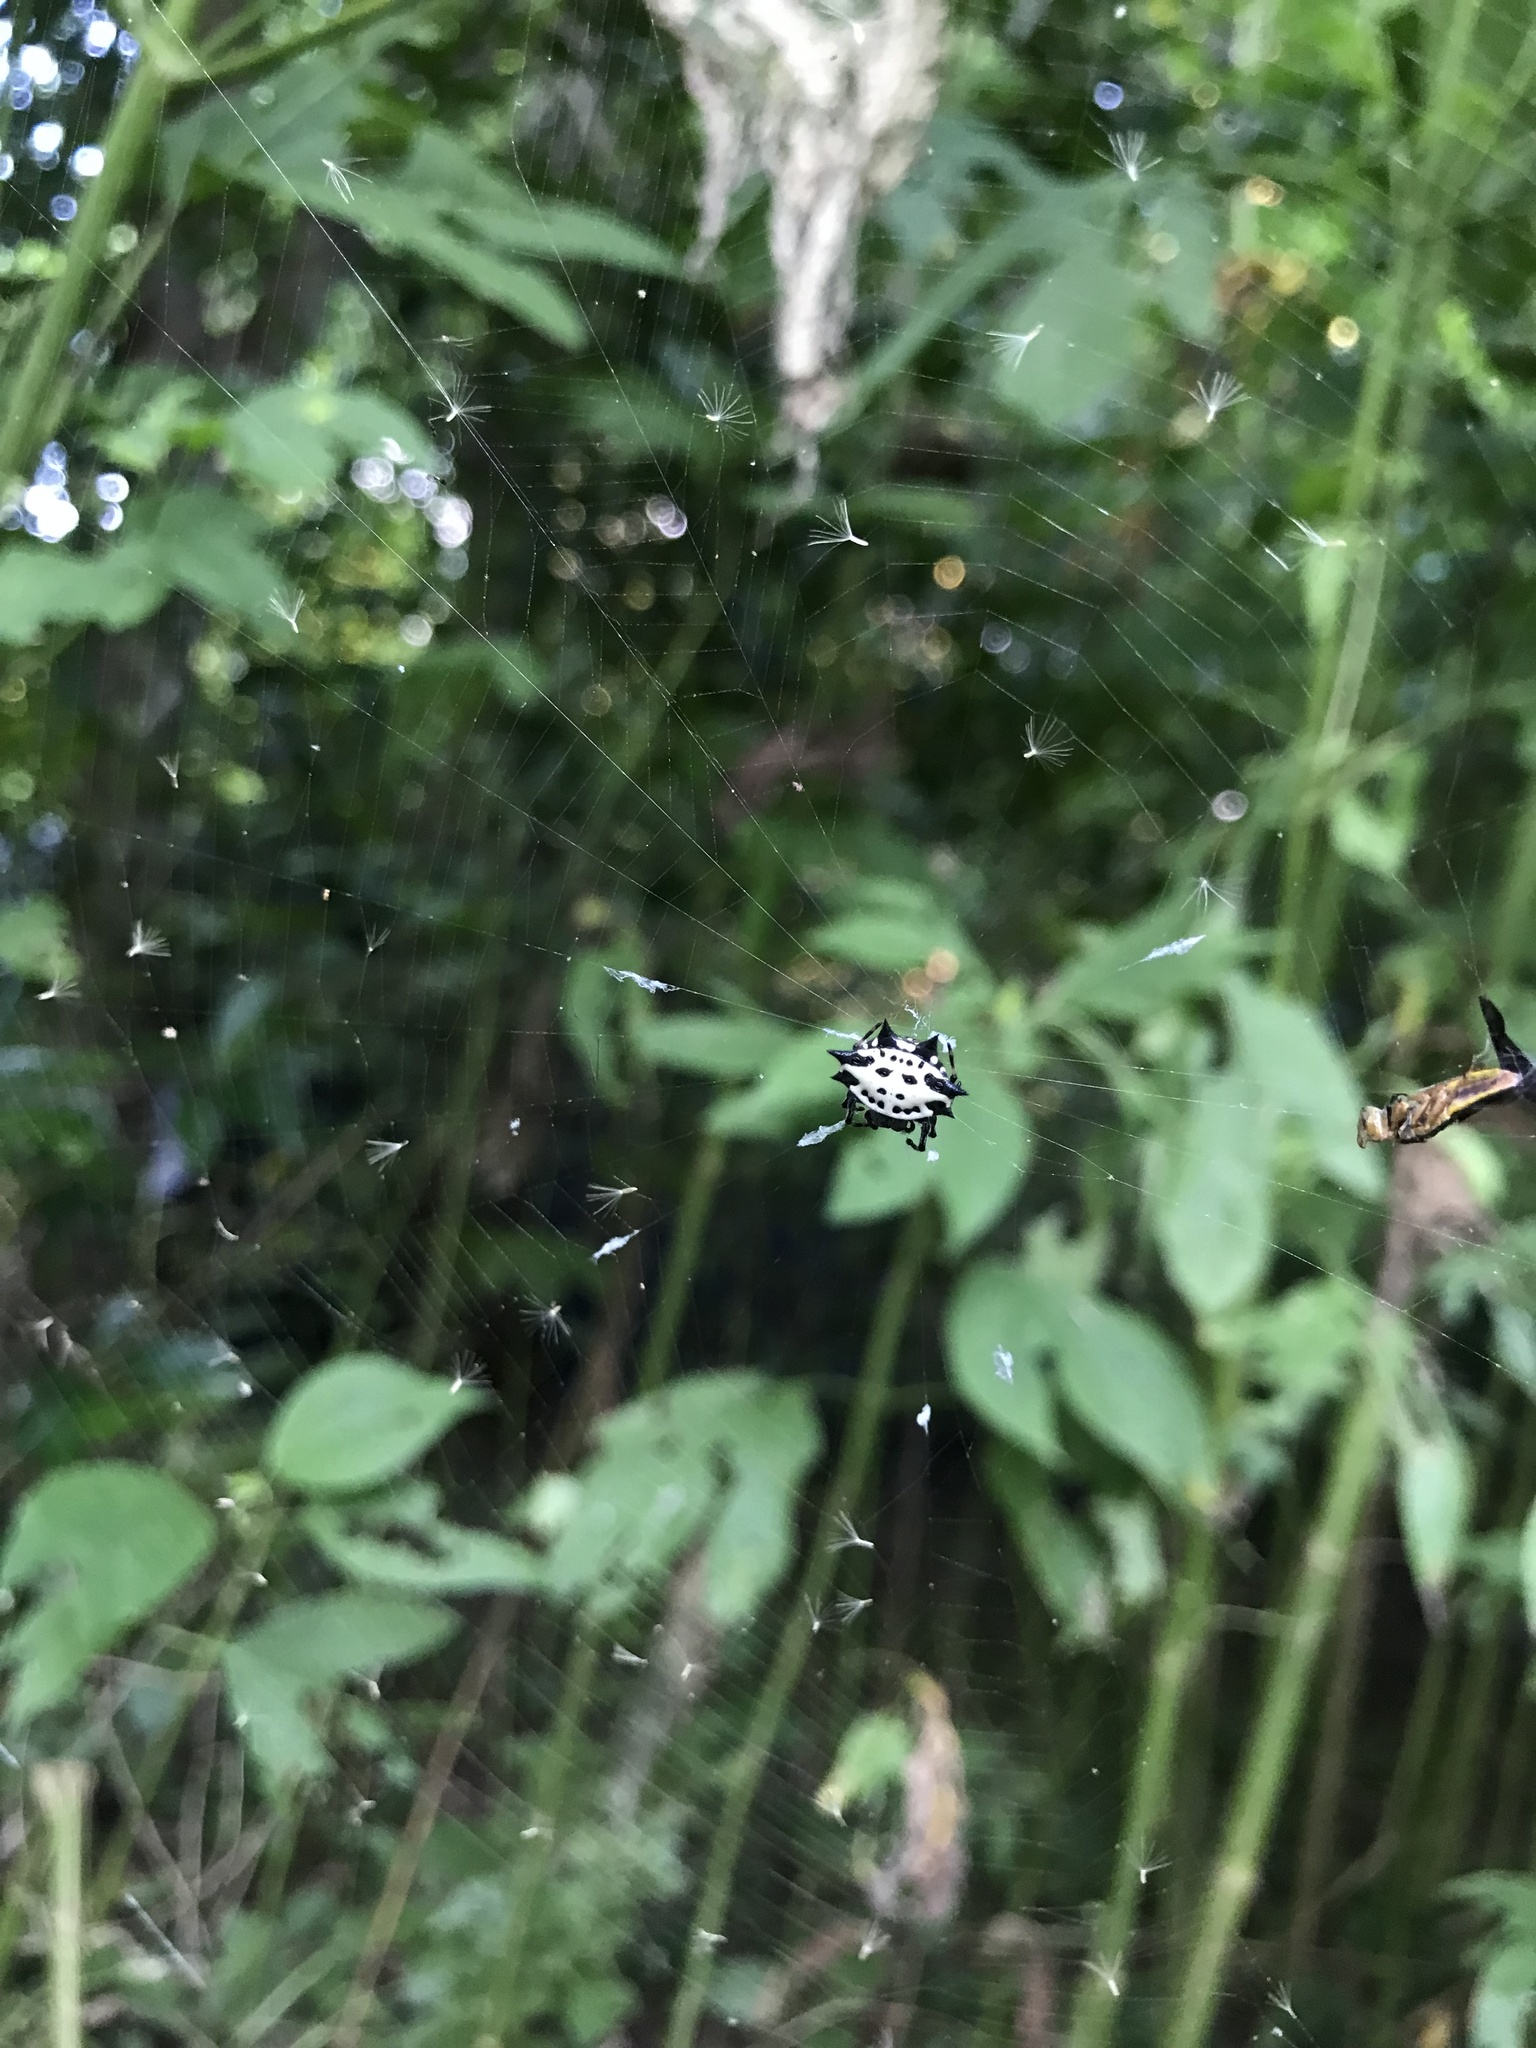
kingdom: Animalia
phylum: Arthropoda
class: Arachnida
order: Araneae
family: Araneidae
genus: Gasteracantha
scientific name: Gasteracantha cancriformis
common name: Orb weavers
